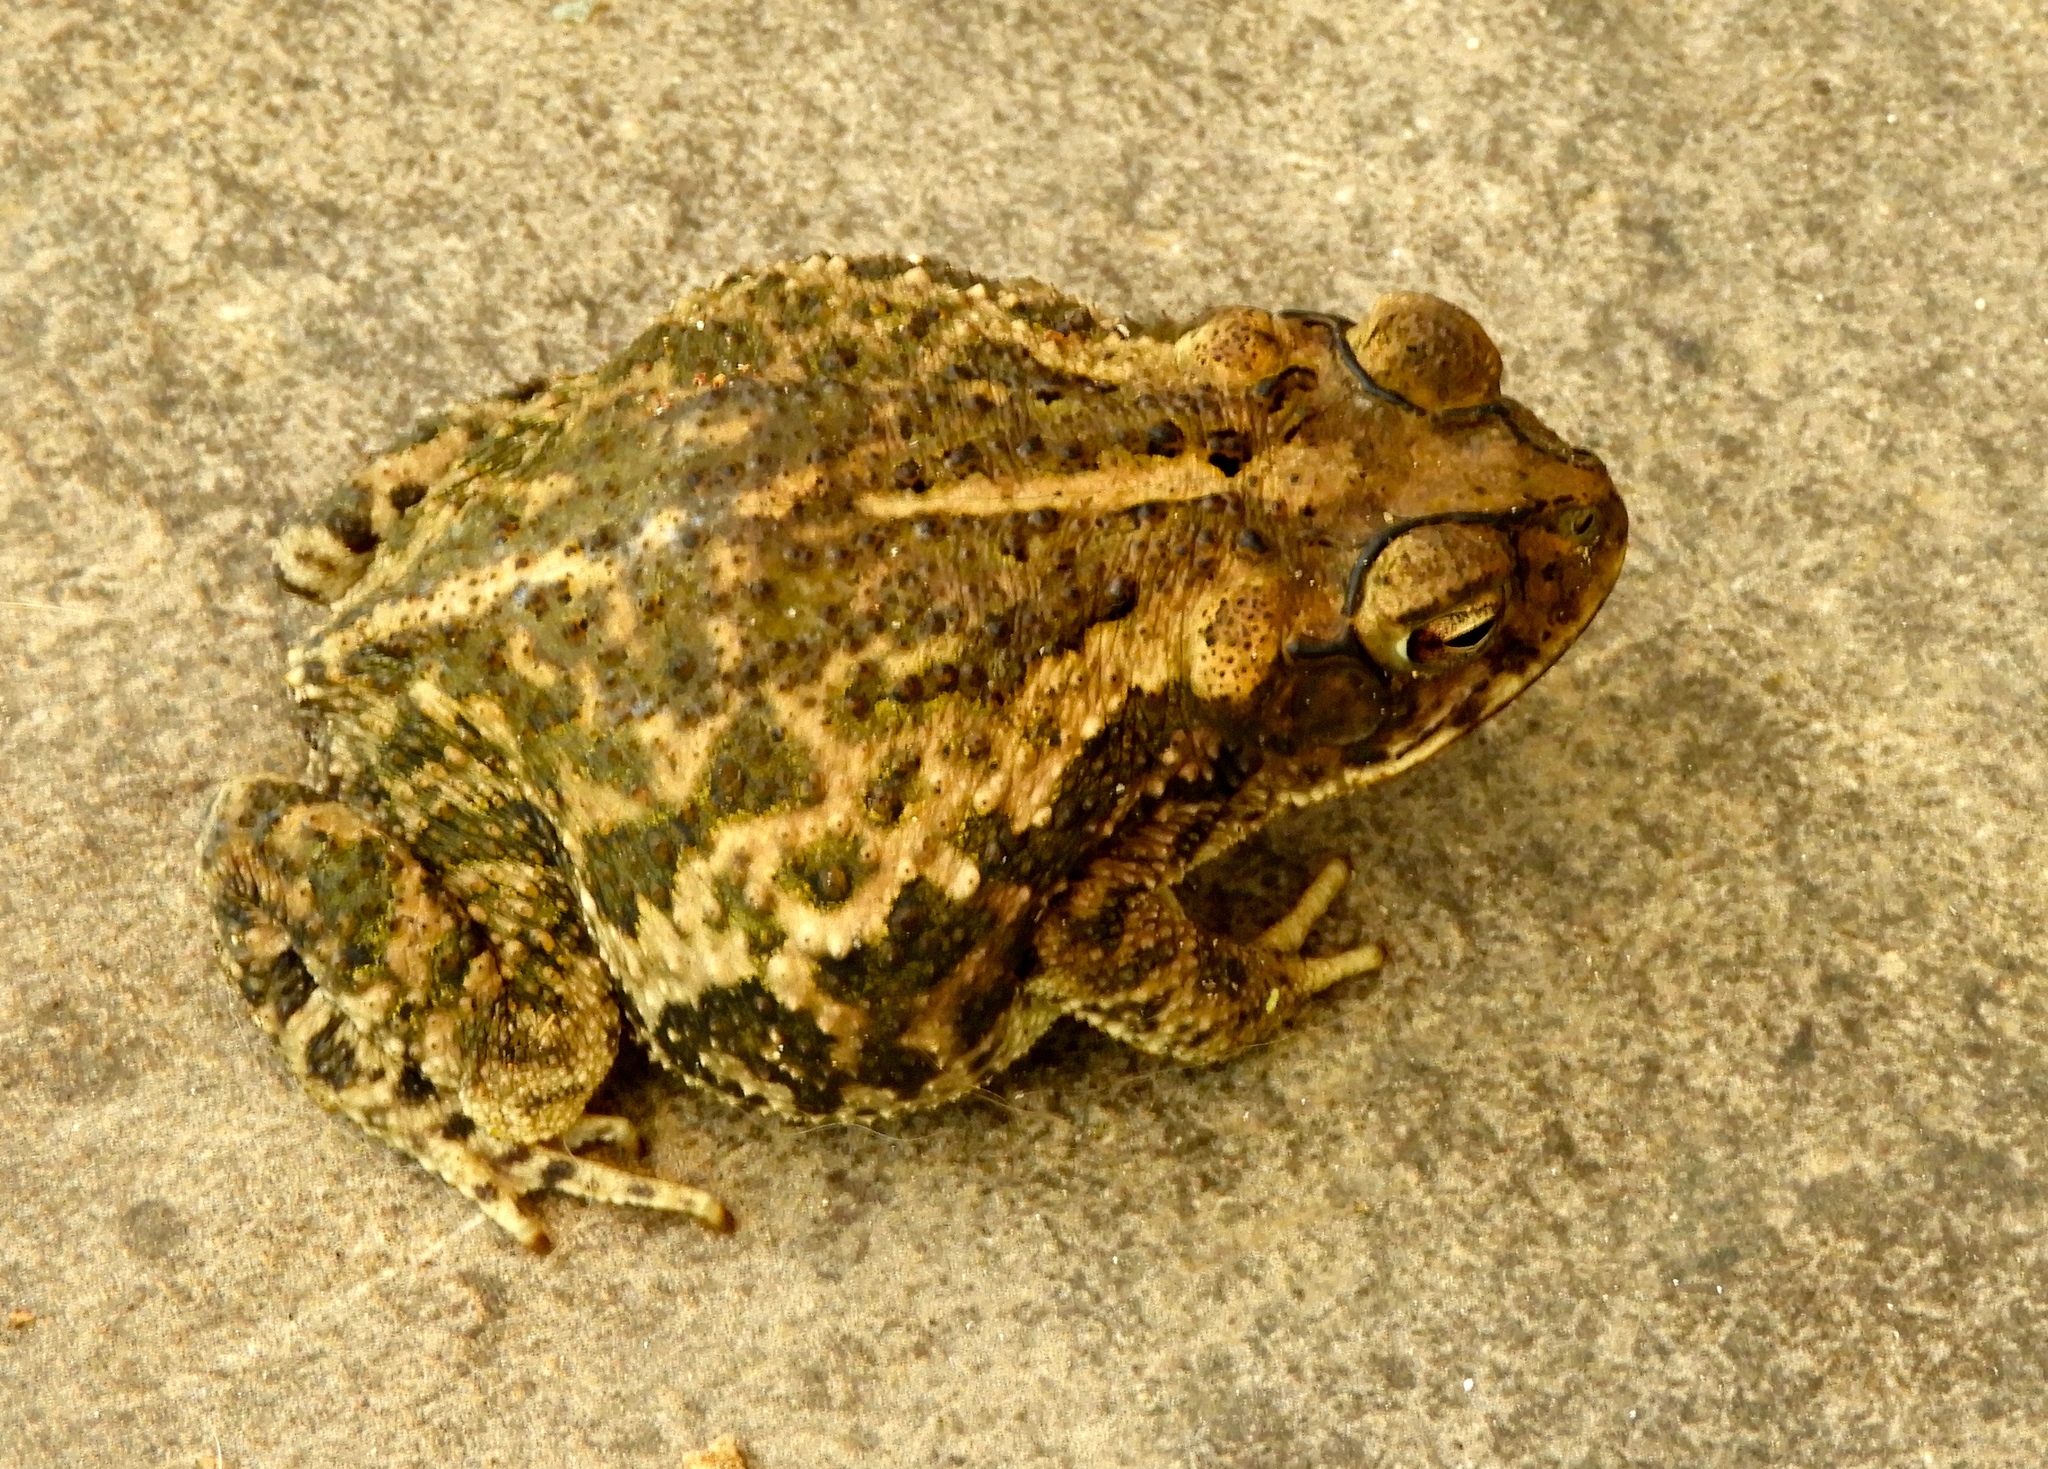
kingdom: Animalia
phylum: Chordata
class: Amphibia
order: Anura
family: Bufonidae
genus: Incilius
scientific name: Incilius mazatlanensis
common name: Sinaloa toad
